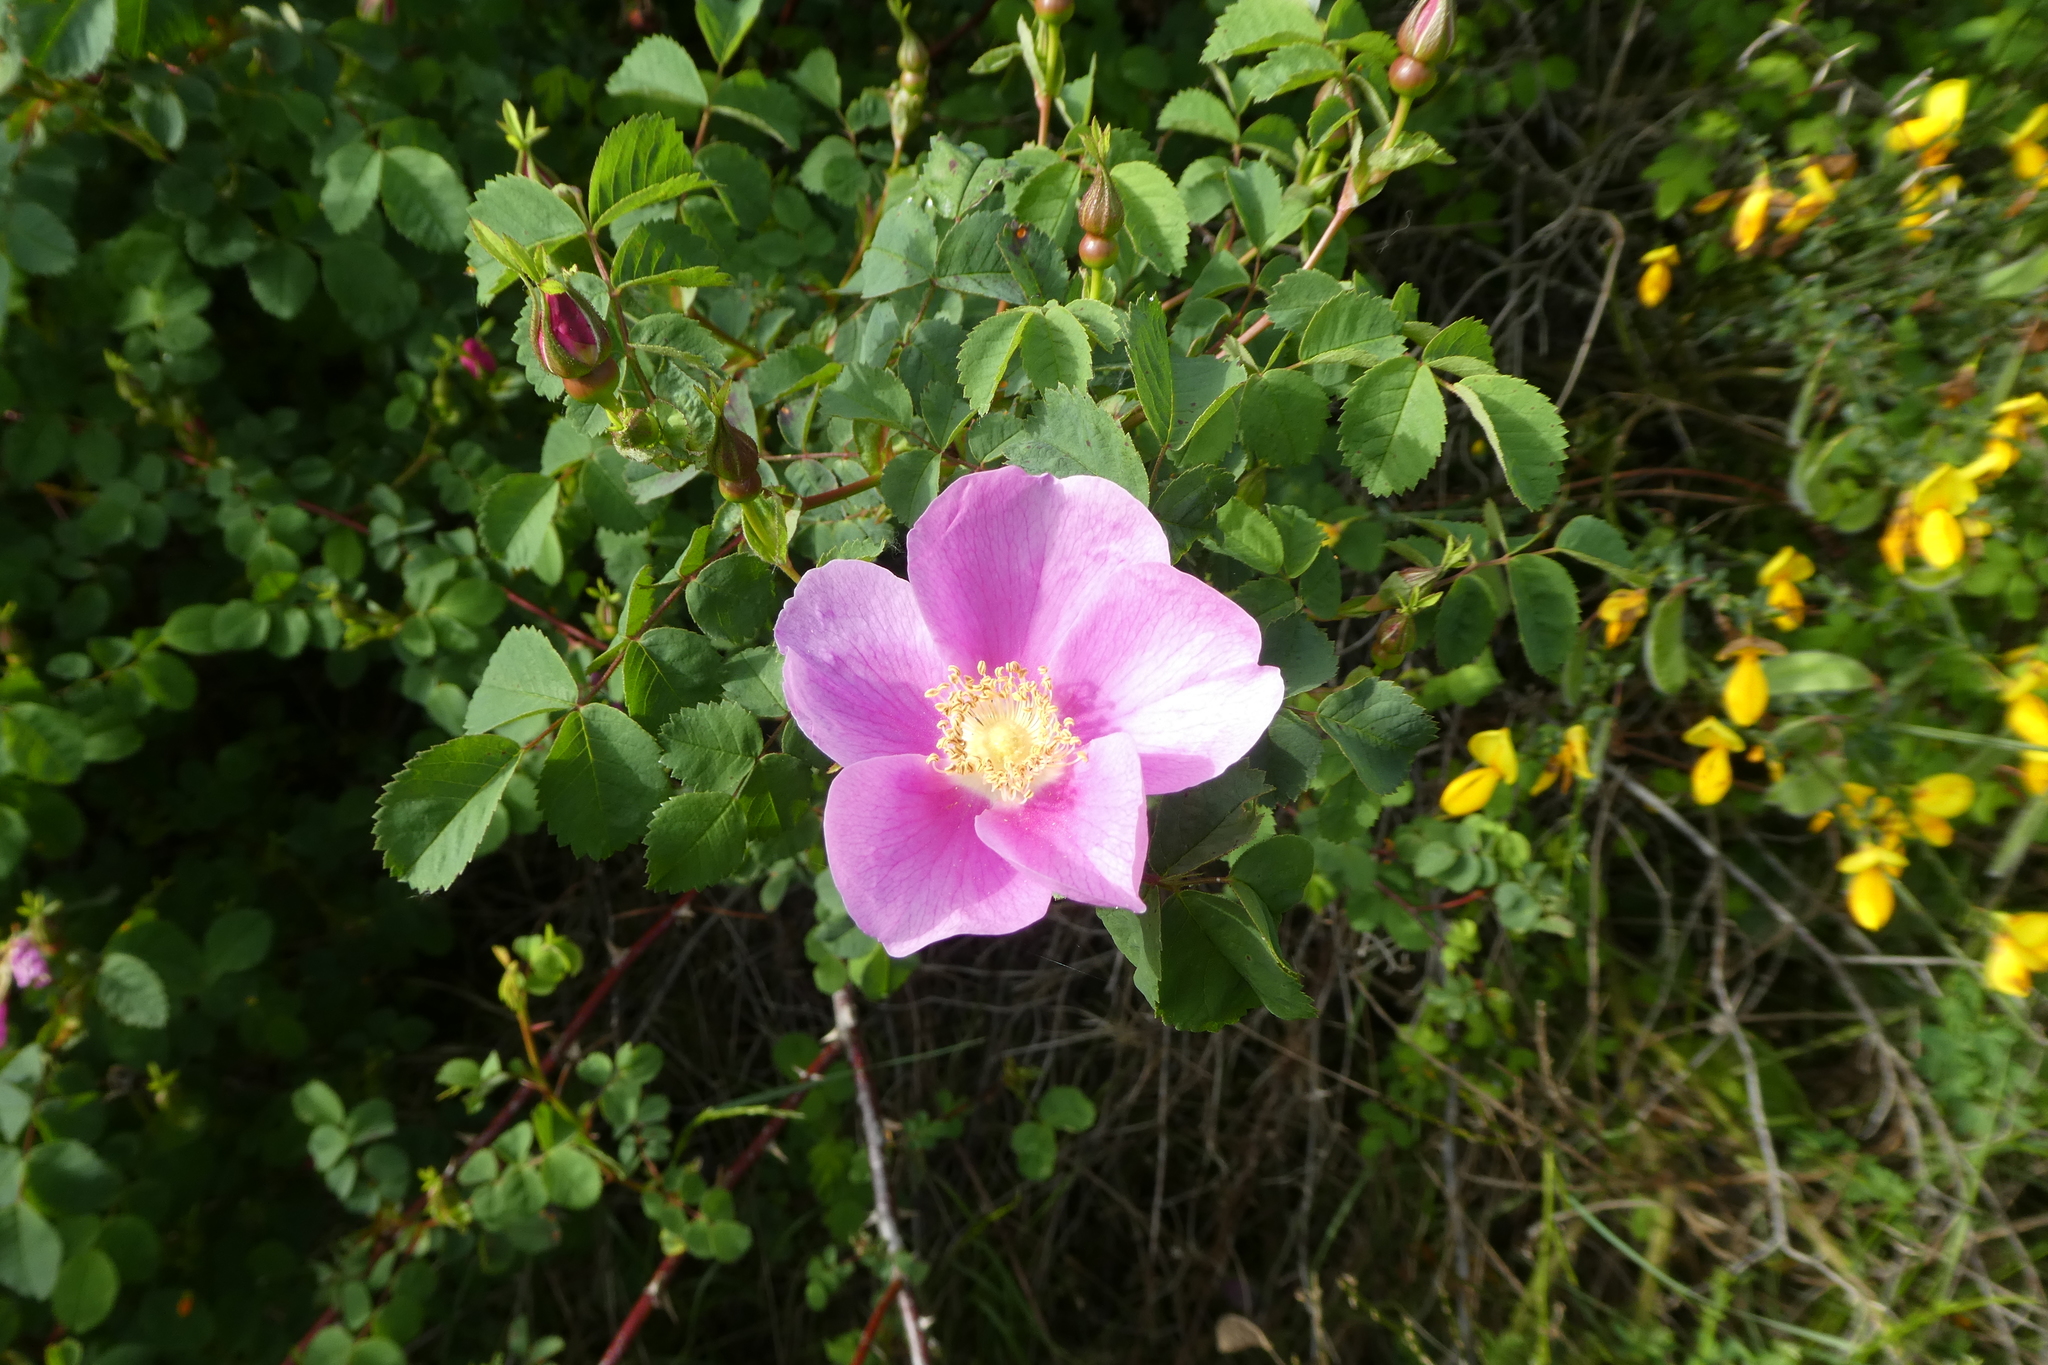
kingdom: Plantae
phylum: Tracheophyta
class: Magnoliopsida
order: Rosales
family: Rosaceae
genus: Rosa
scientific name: Rosa nutkana
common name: Nootka rose
